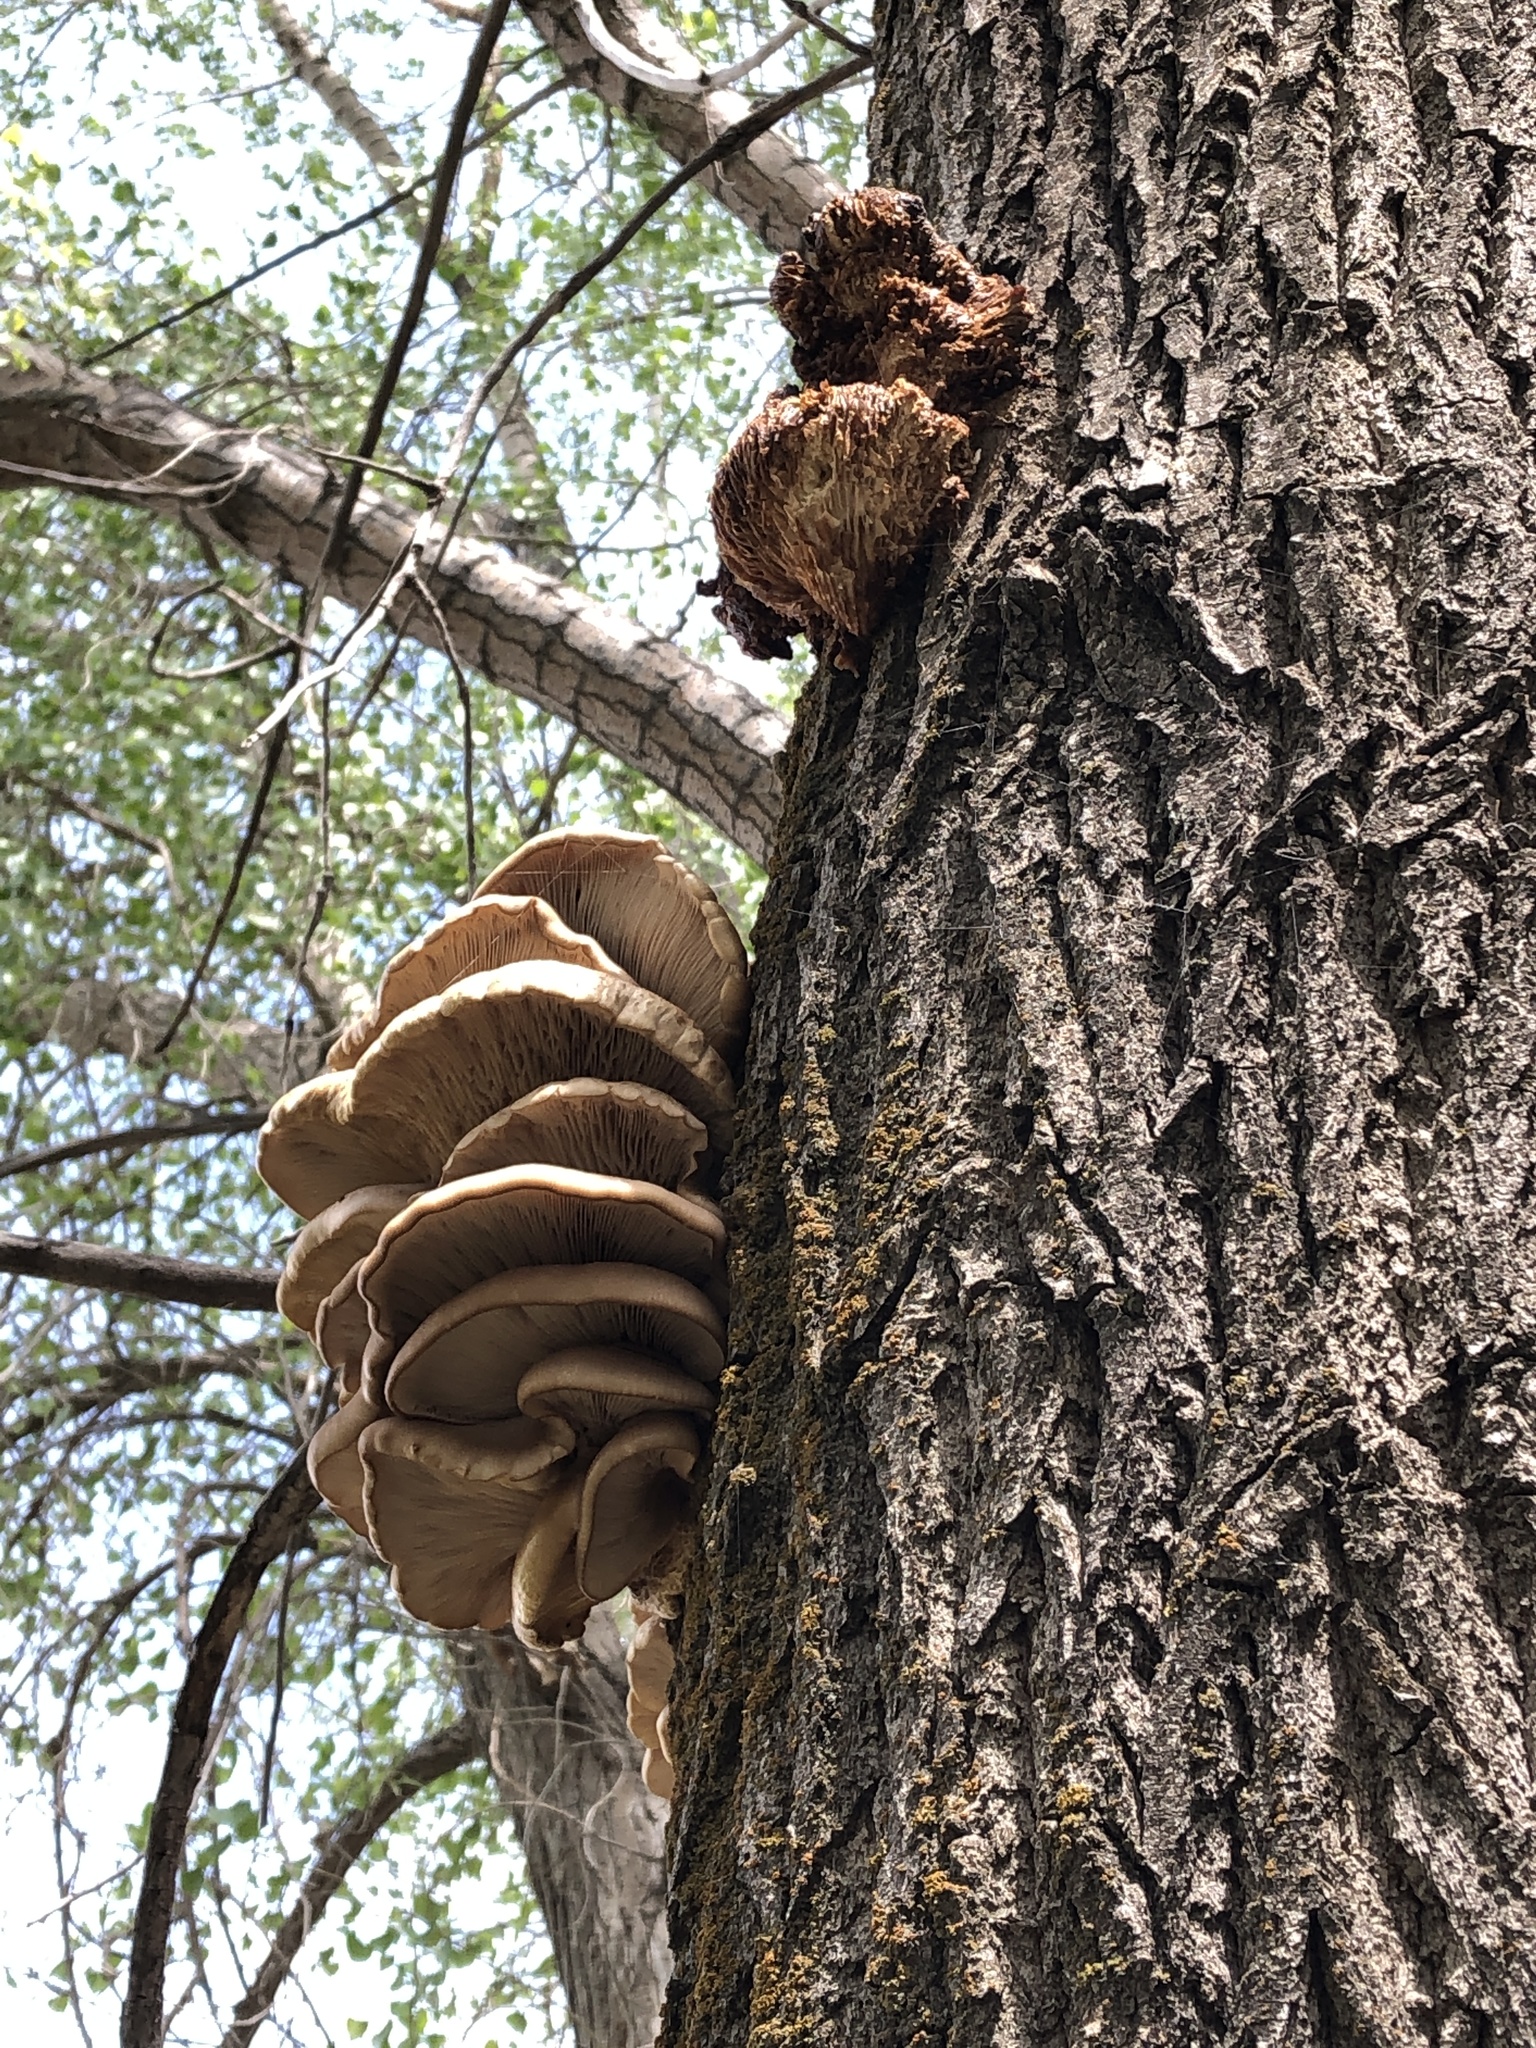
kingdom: Fungi
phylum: Basidiomycota
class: Agaricomycetes
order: Agaricales
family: Pleurotaceae
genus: Pleurotus
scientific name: Pleurotus ostreatus
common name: Oyster mushroom
